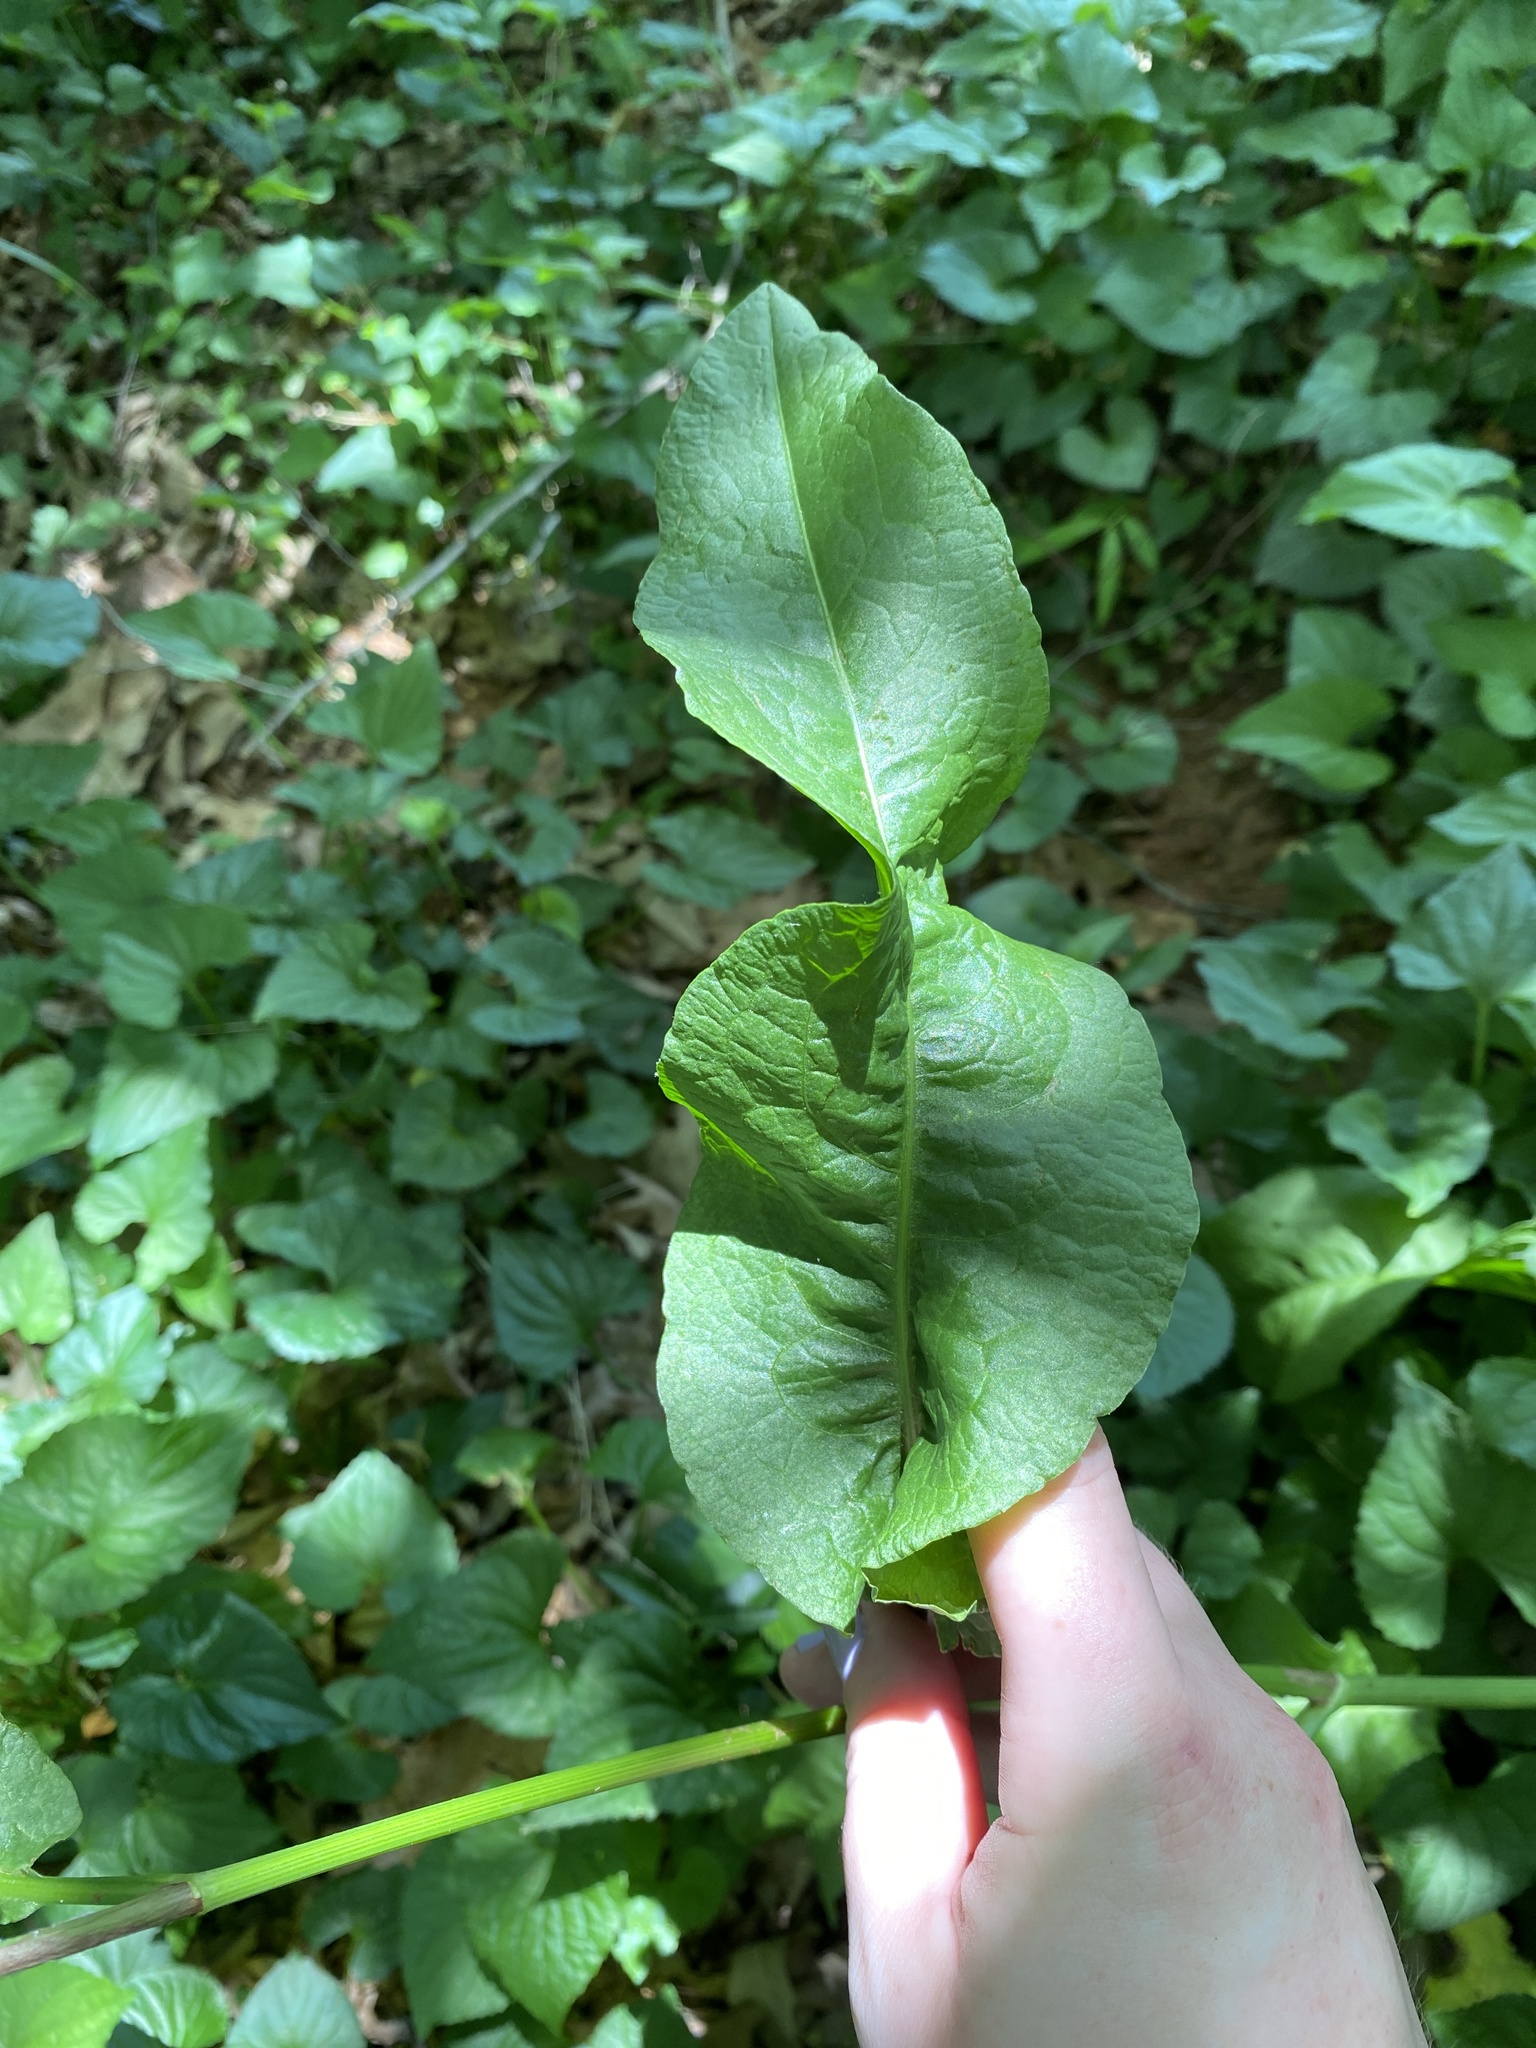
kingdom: Plantae
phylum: Tracheophyta
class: Magnoliopsida
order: Caryophyllales
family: Polygonaceae
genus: Rumex
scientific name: Rumex crispus
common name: Curled dock
